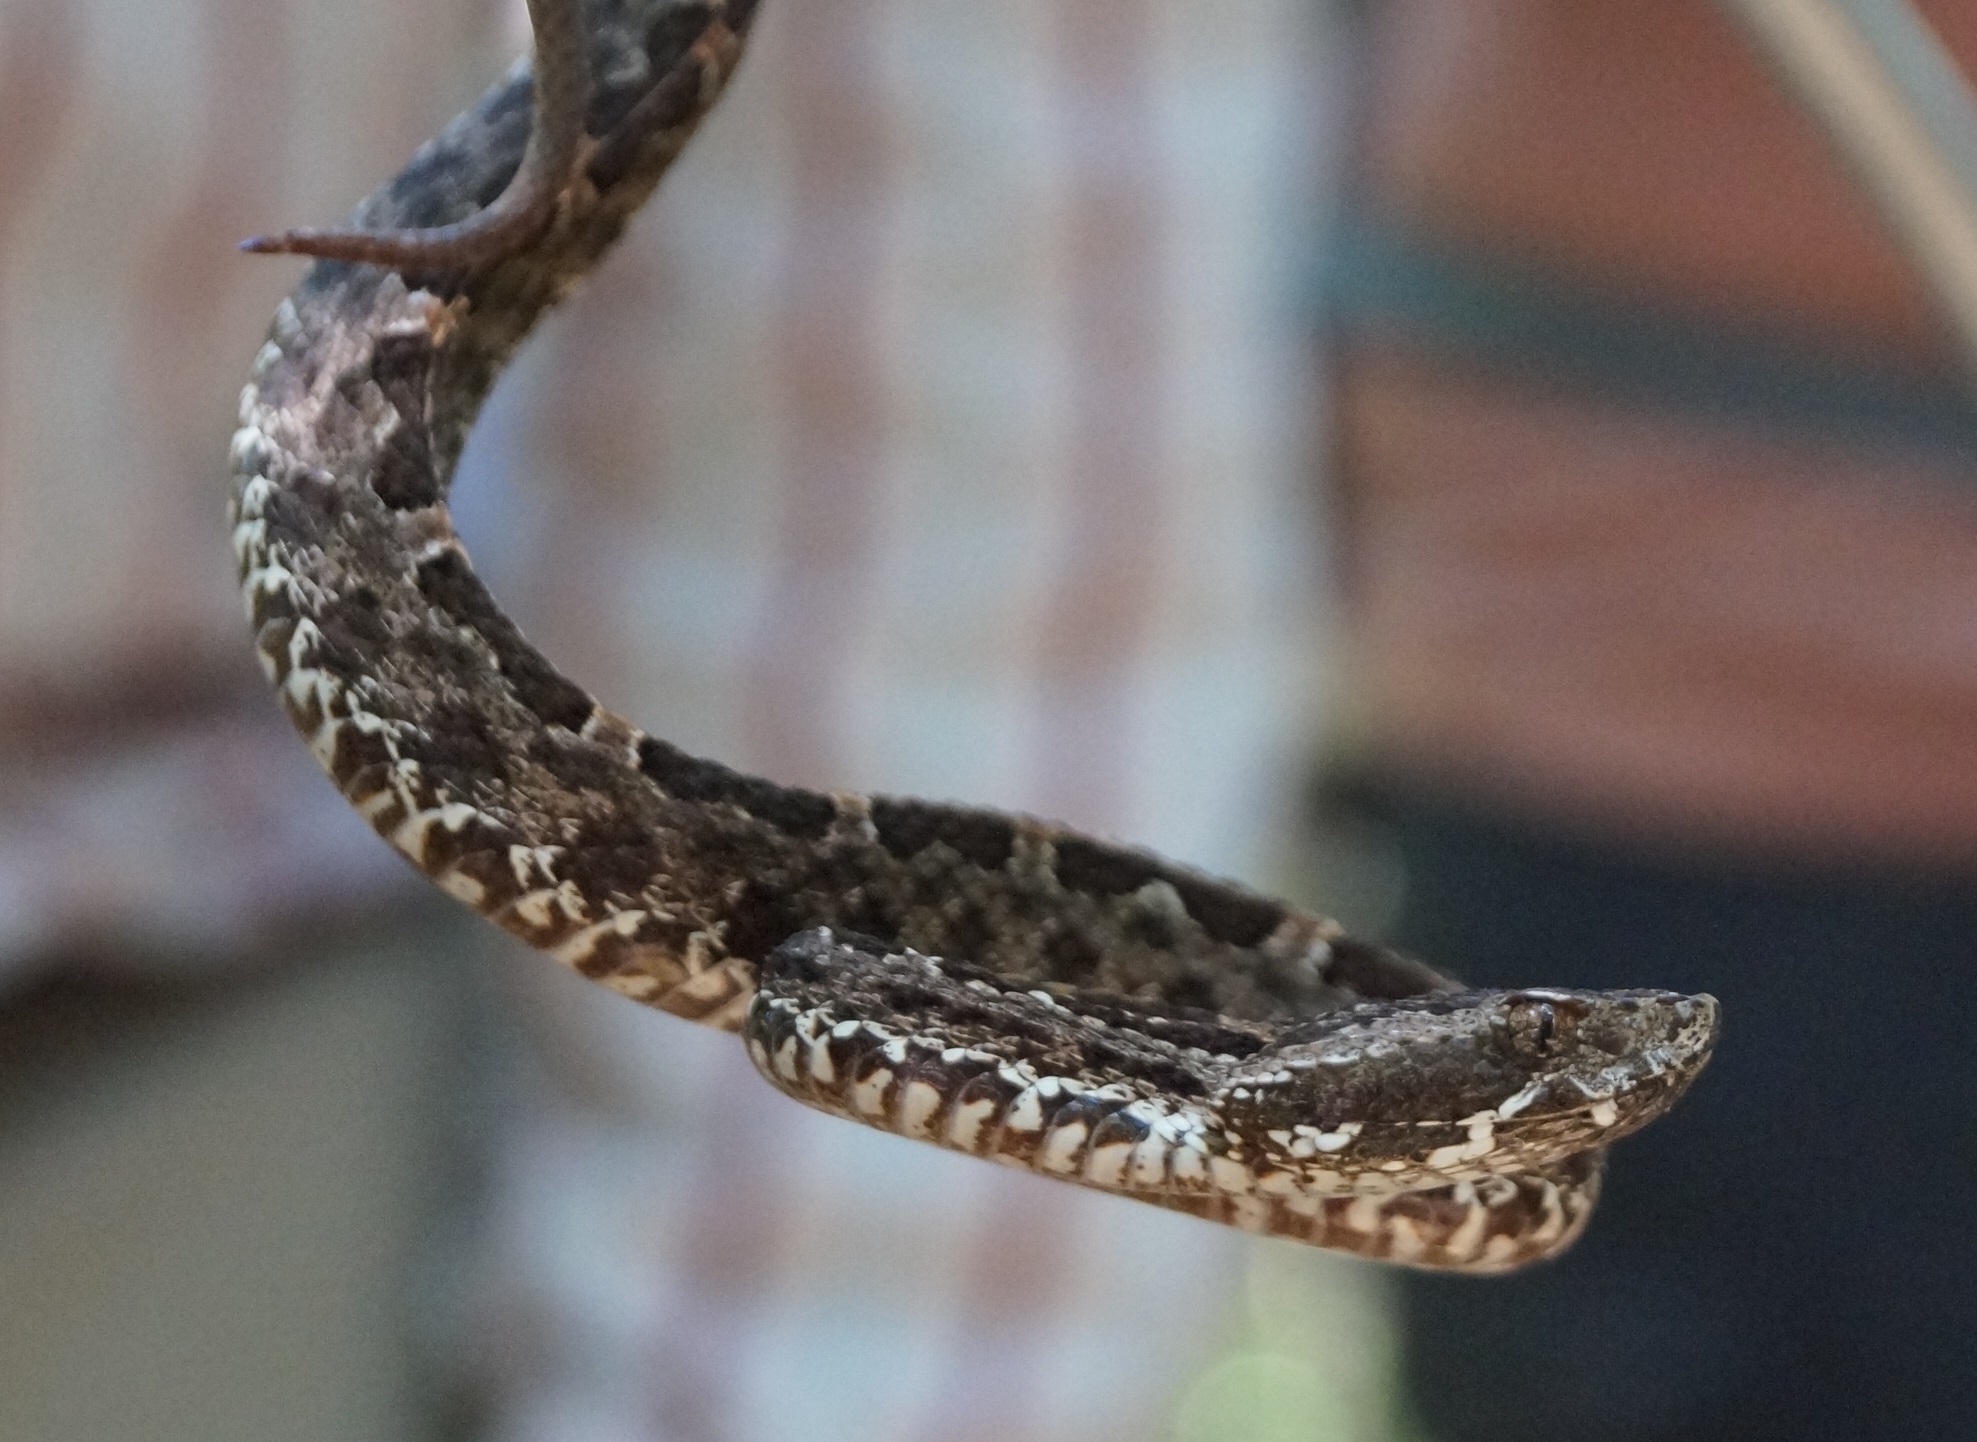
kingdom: Animalia
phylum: Chordata
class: Squamata
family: Viperidae
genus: Porthidium
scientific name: Porthidium ophryomegas
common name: Slender hognose viper
